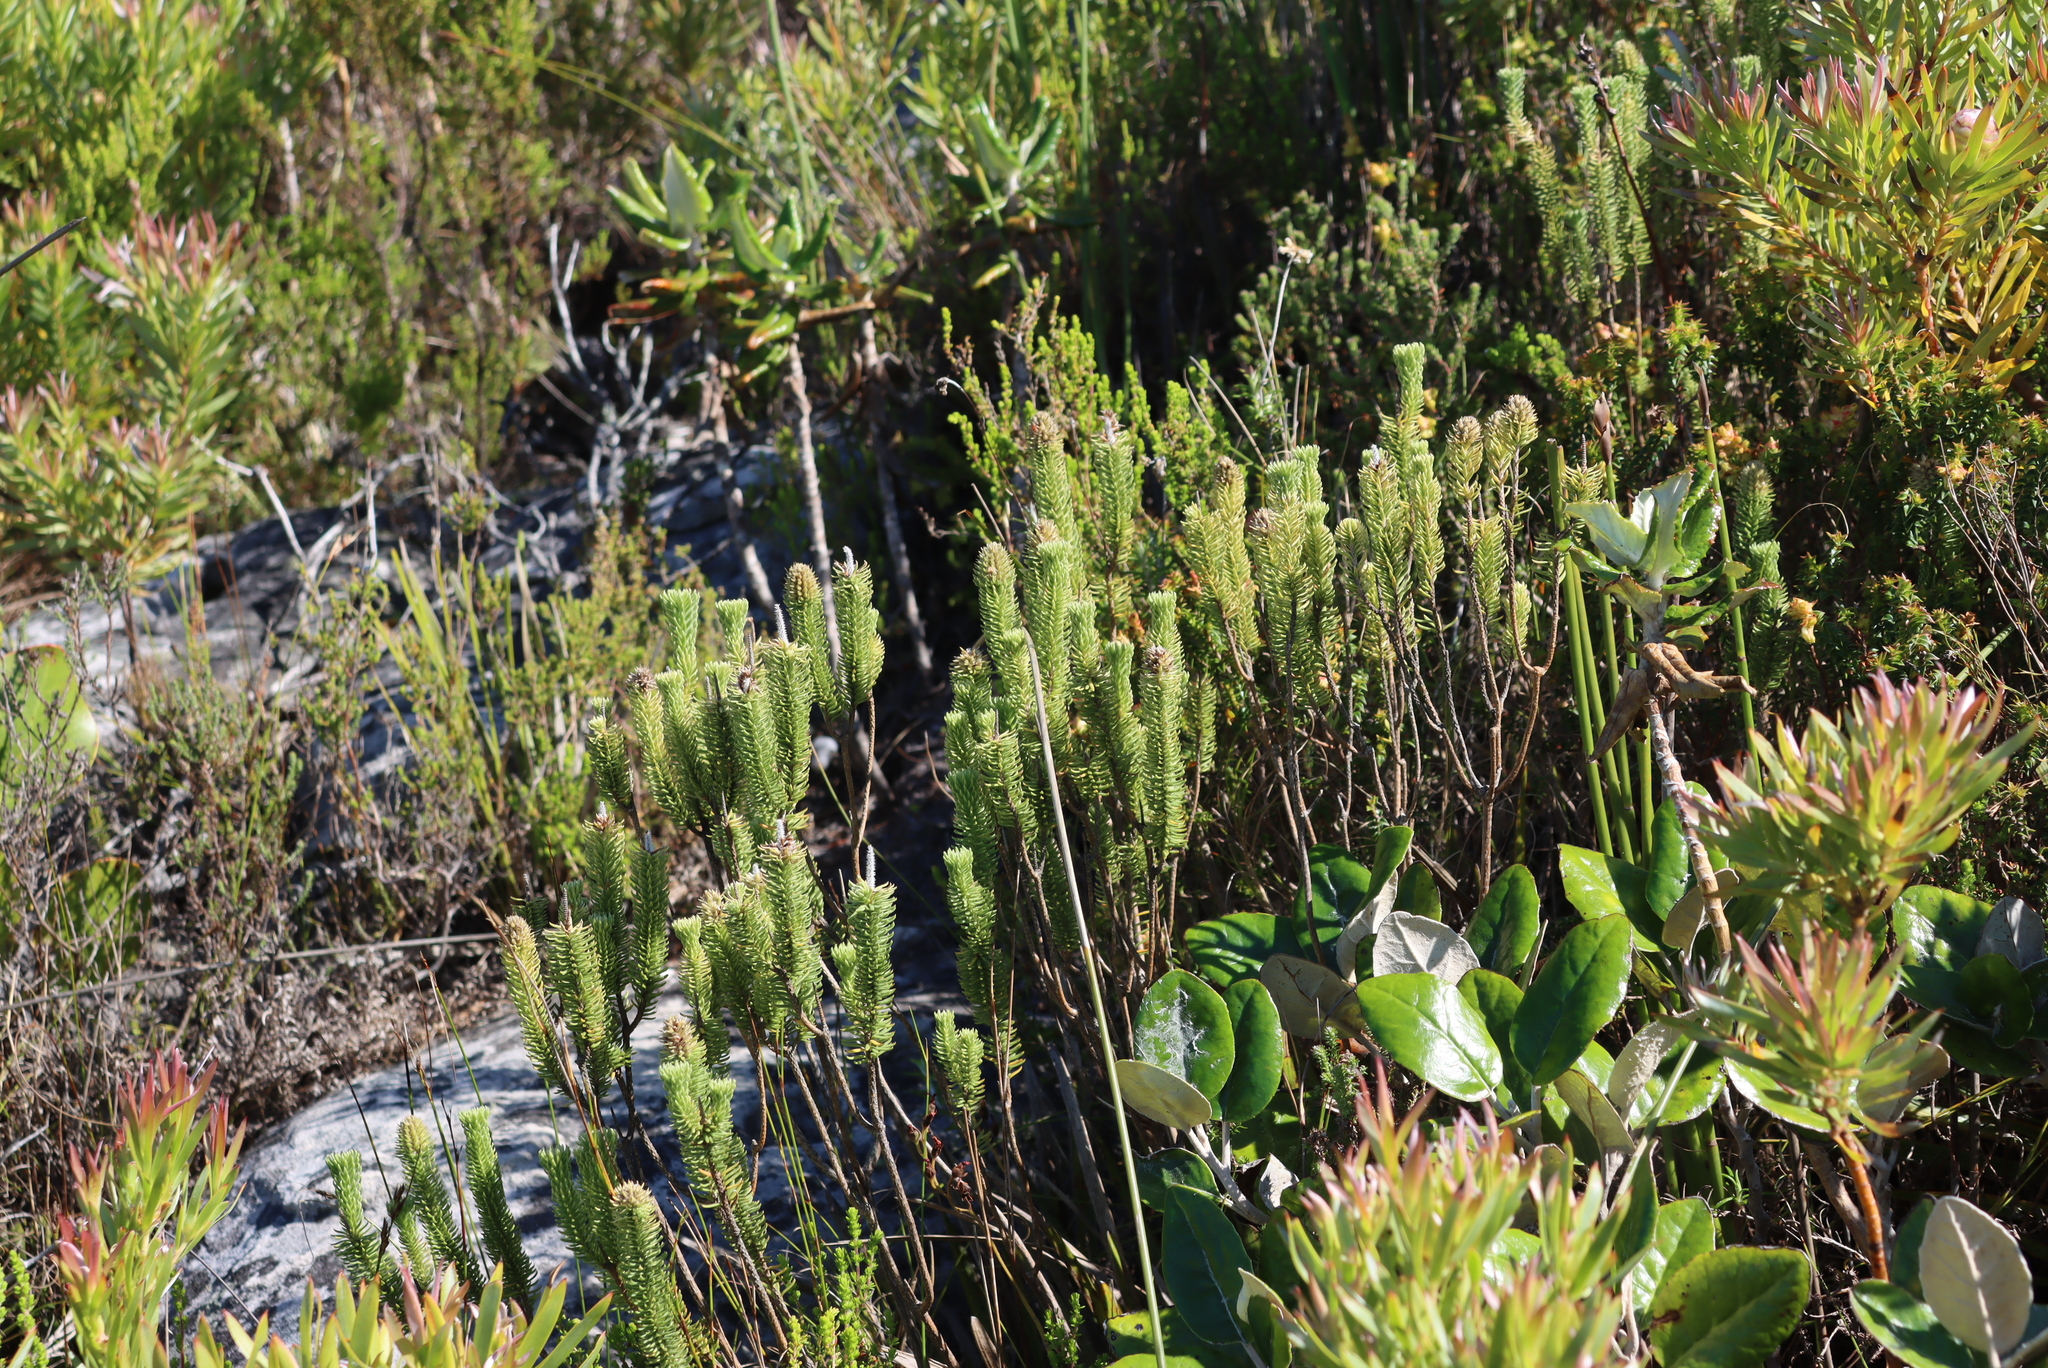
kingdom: Plantae
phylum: Tracheophyta
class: Magnoliopsida
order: Lamiales
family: Stilbaceae
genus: Stilbe
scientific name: Stilbe vestita
